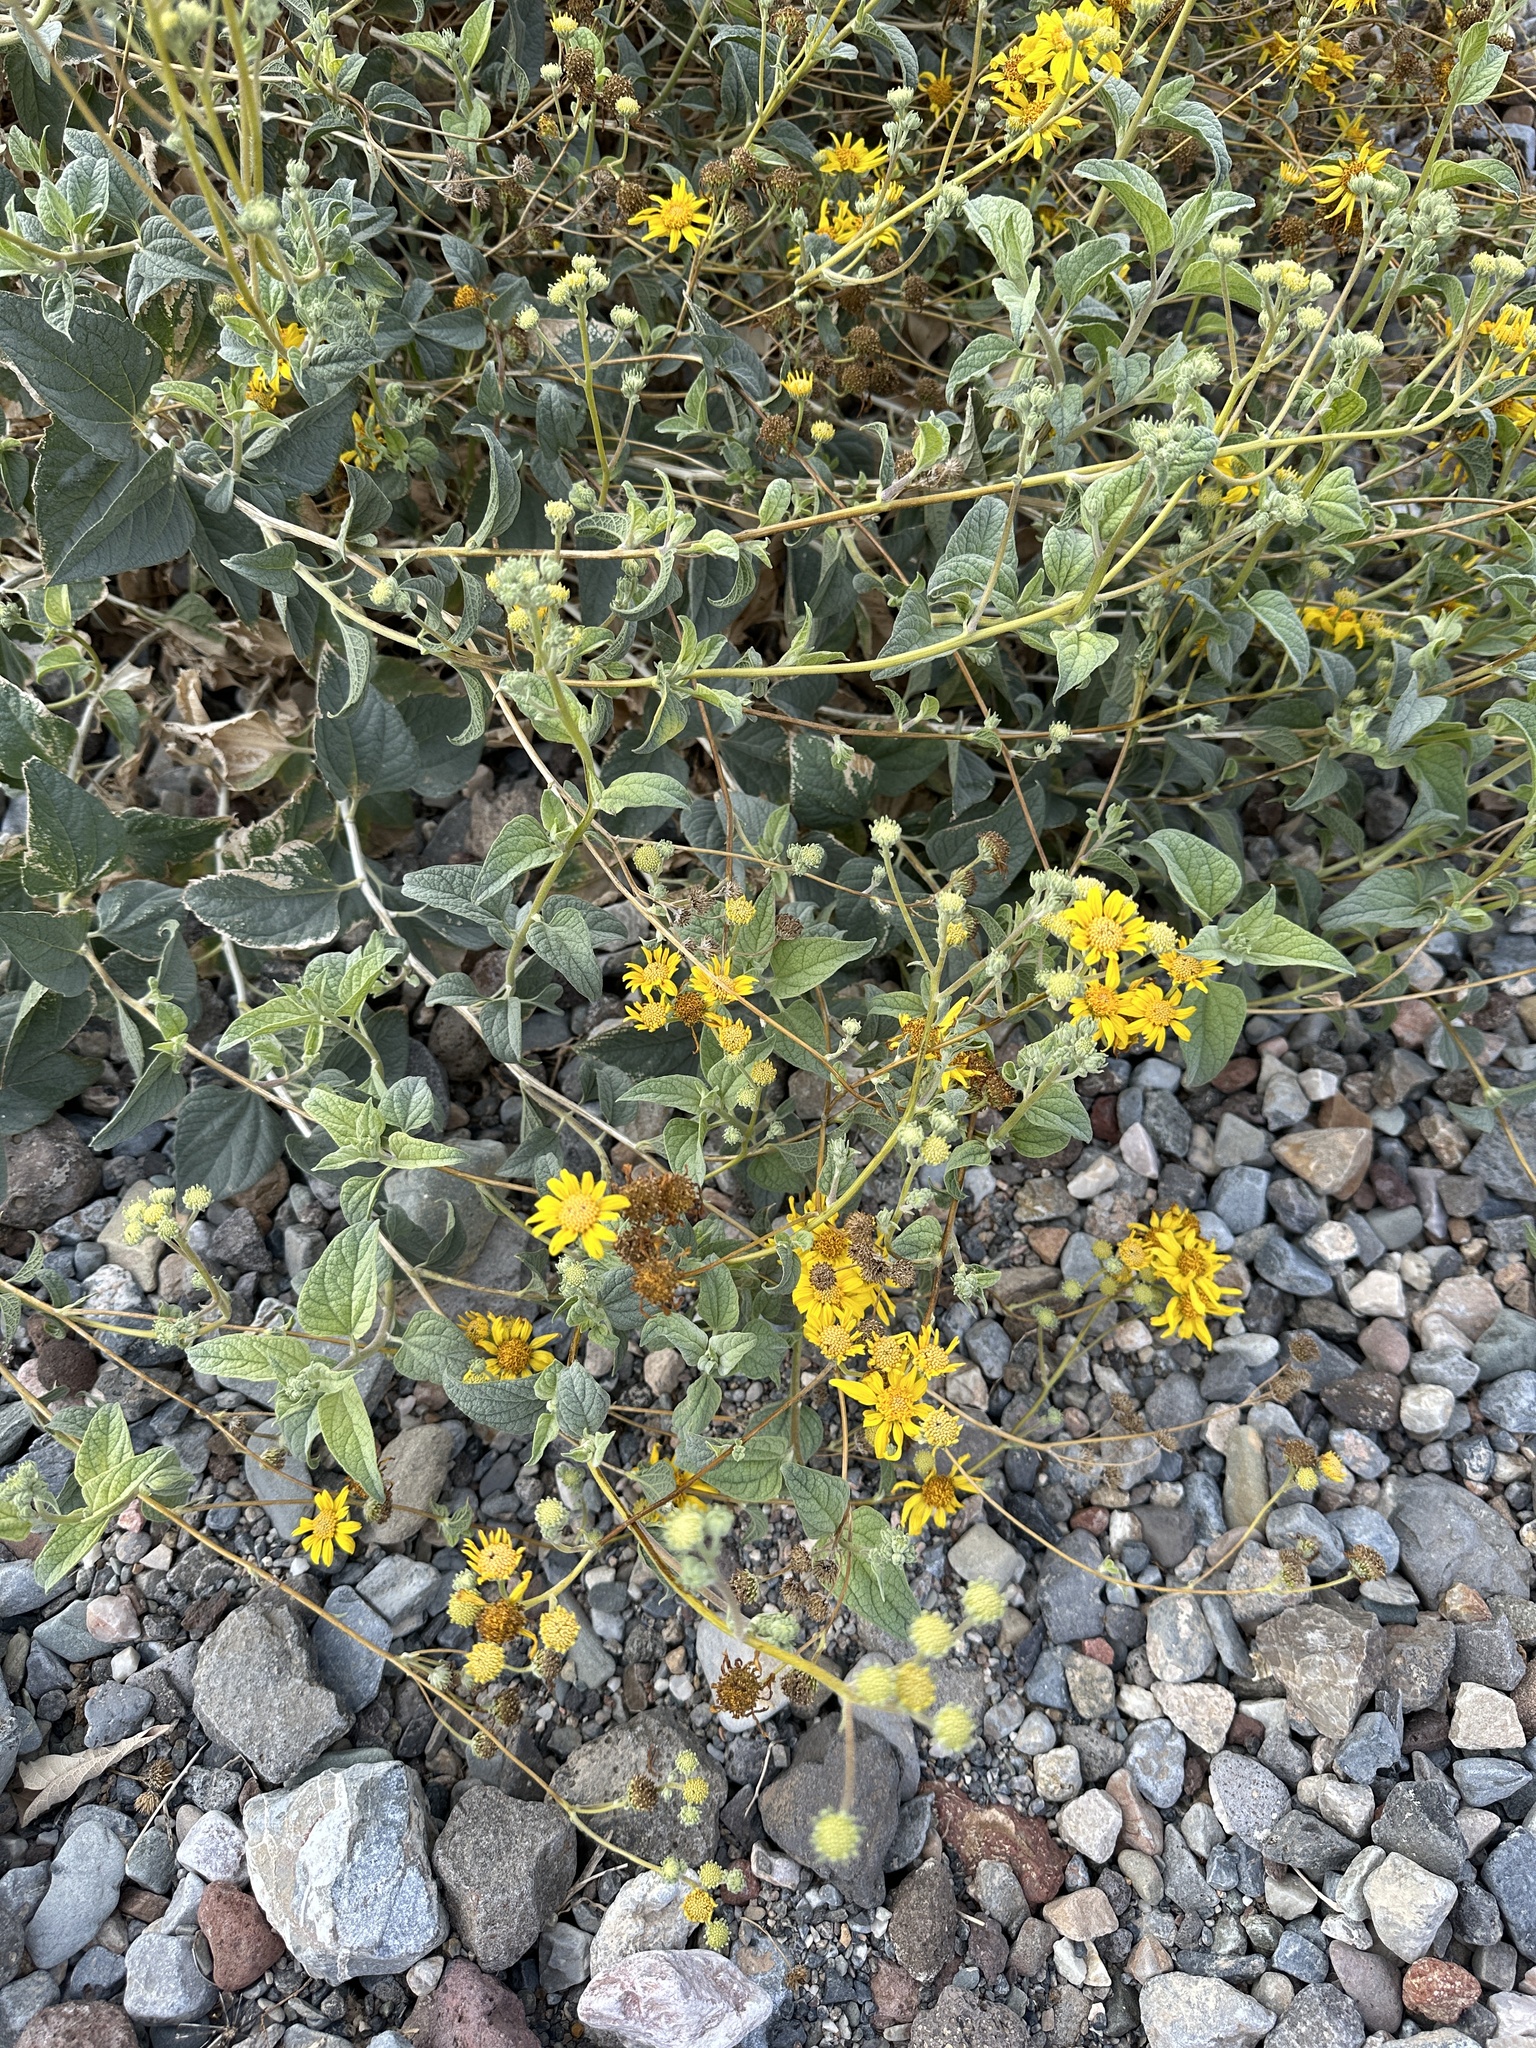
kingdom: Plantae
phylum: Tracheophyta
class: Magnoliopsida
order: Asterales
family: Asteraceae
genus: Bahiopsis
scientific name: Bahiopsis reticulata
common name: Death valley goldeneye
